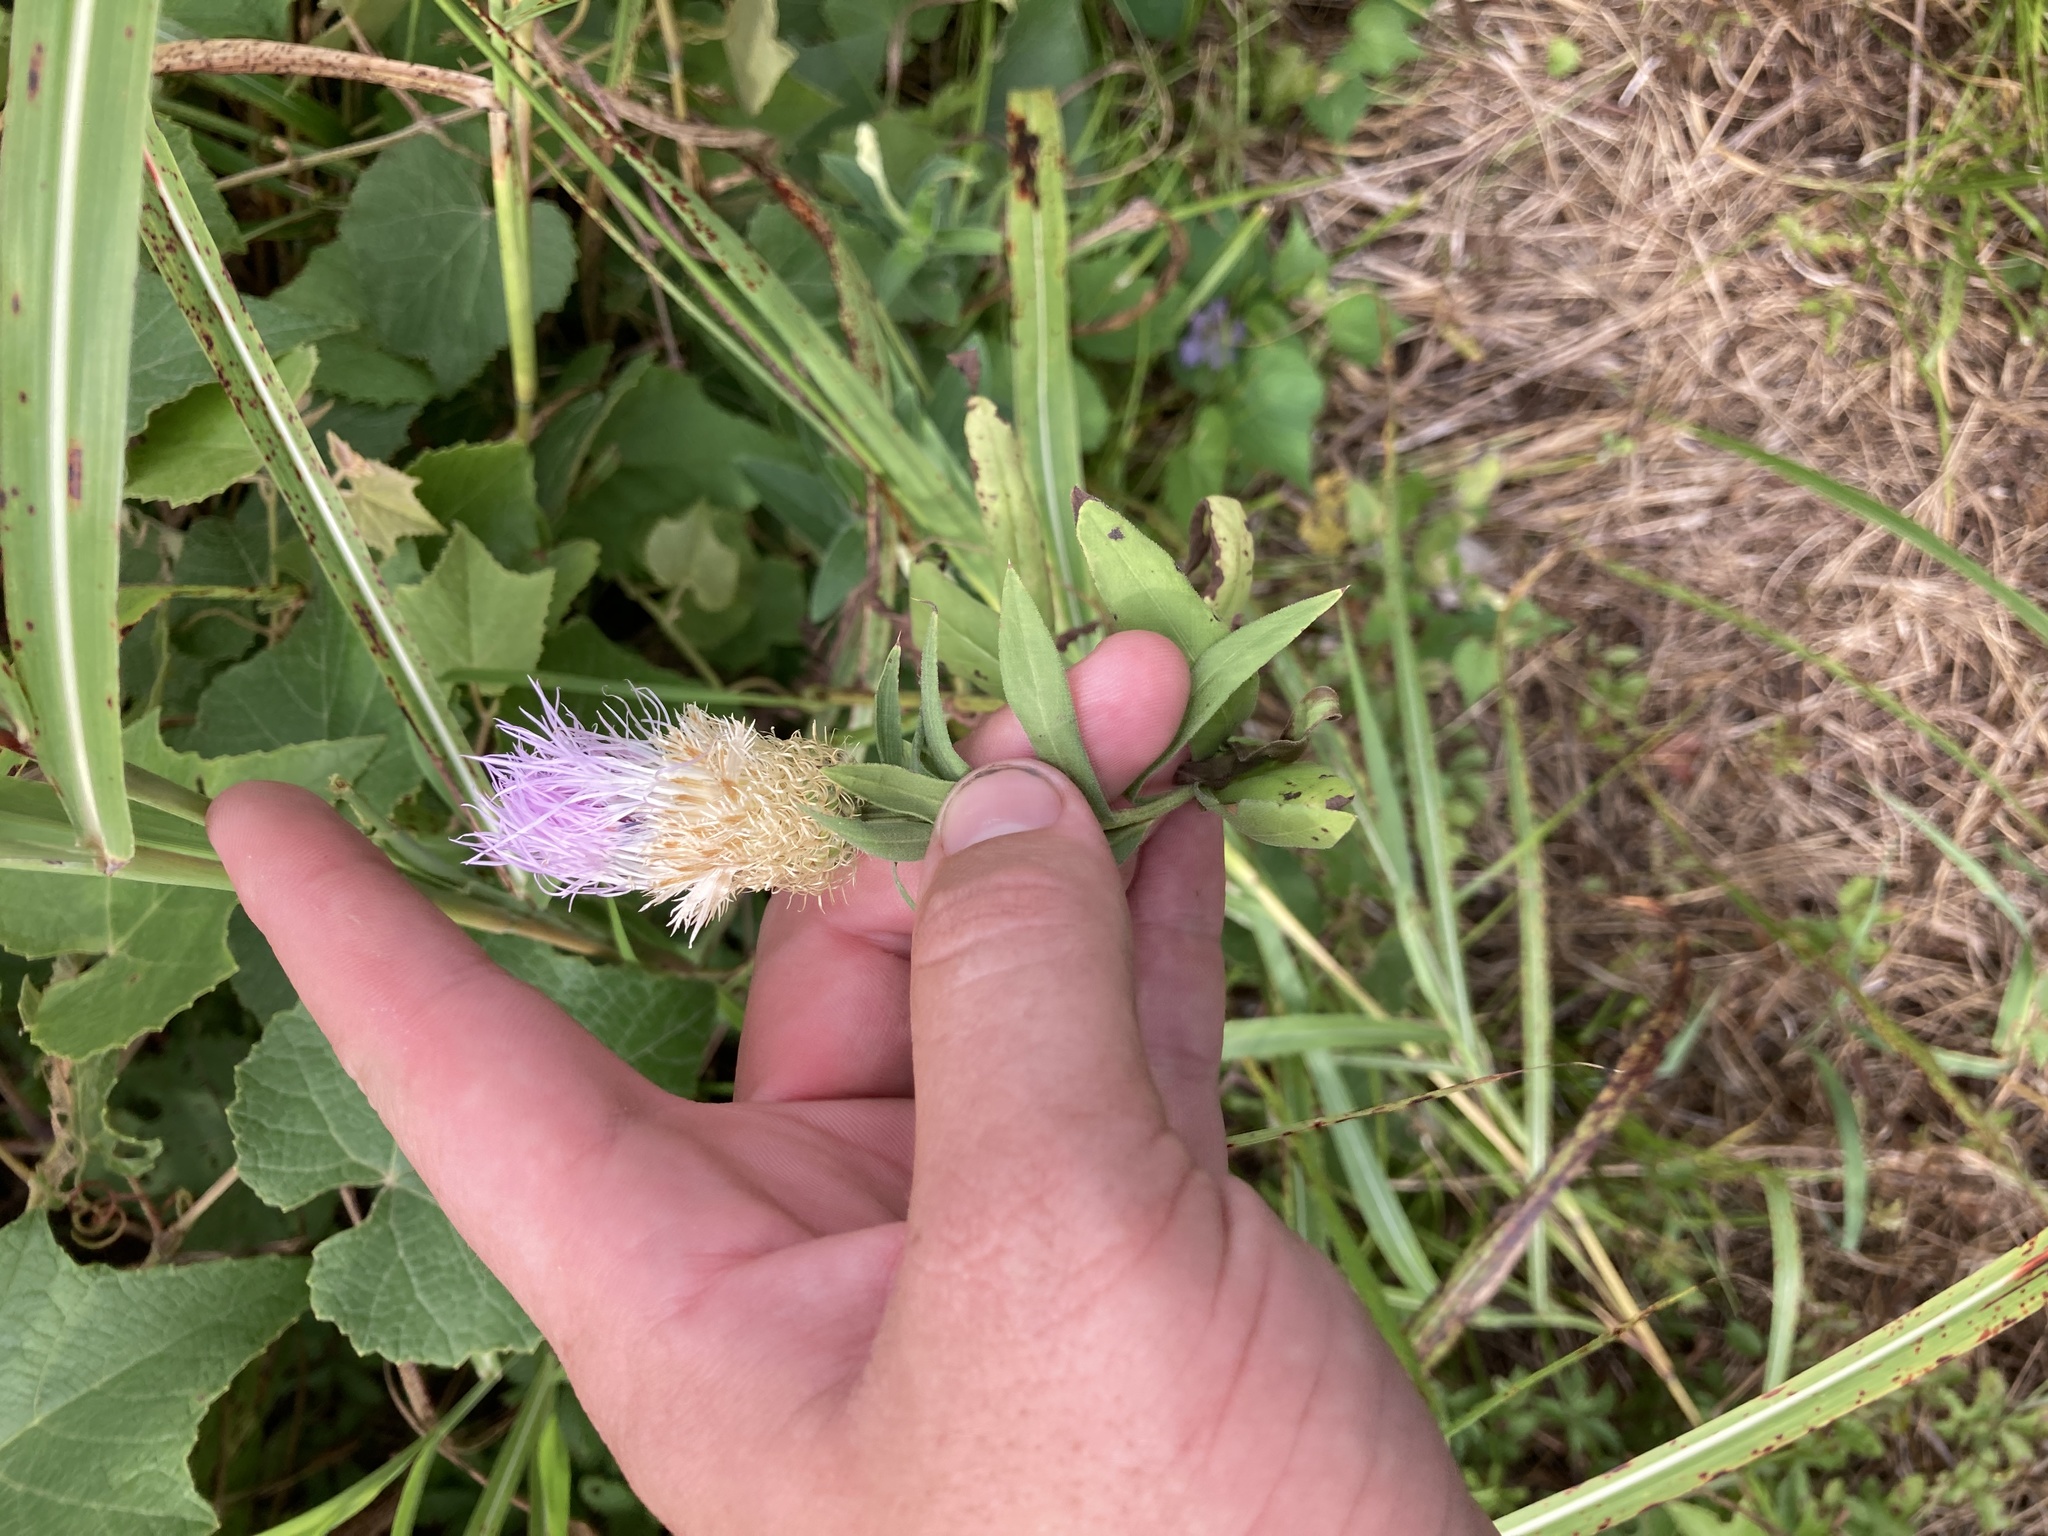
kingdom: Plantae
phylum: Tracheophyta
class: Magnoliopsida
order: Asterales
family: Asteraceae
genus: Plectocephalus
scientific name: Plectocephalus americanus
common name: American basket-flower
